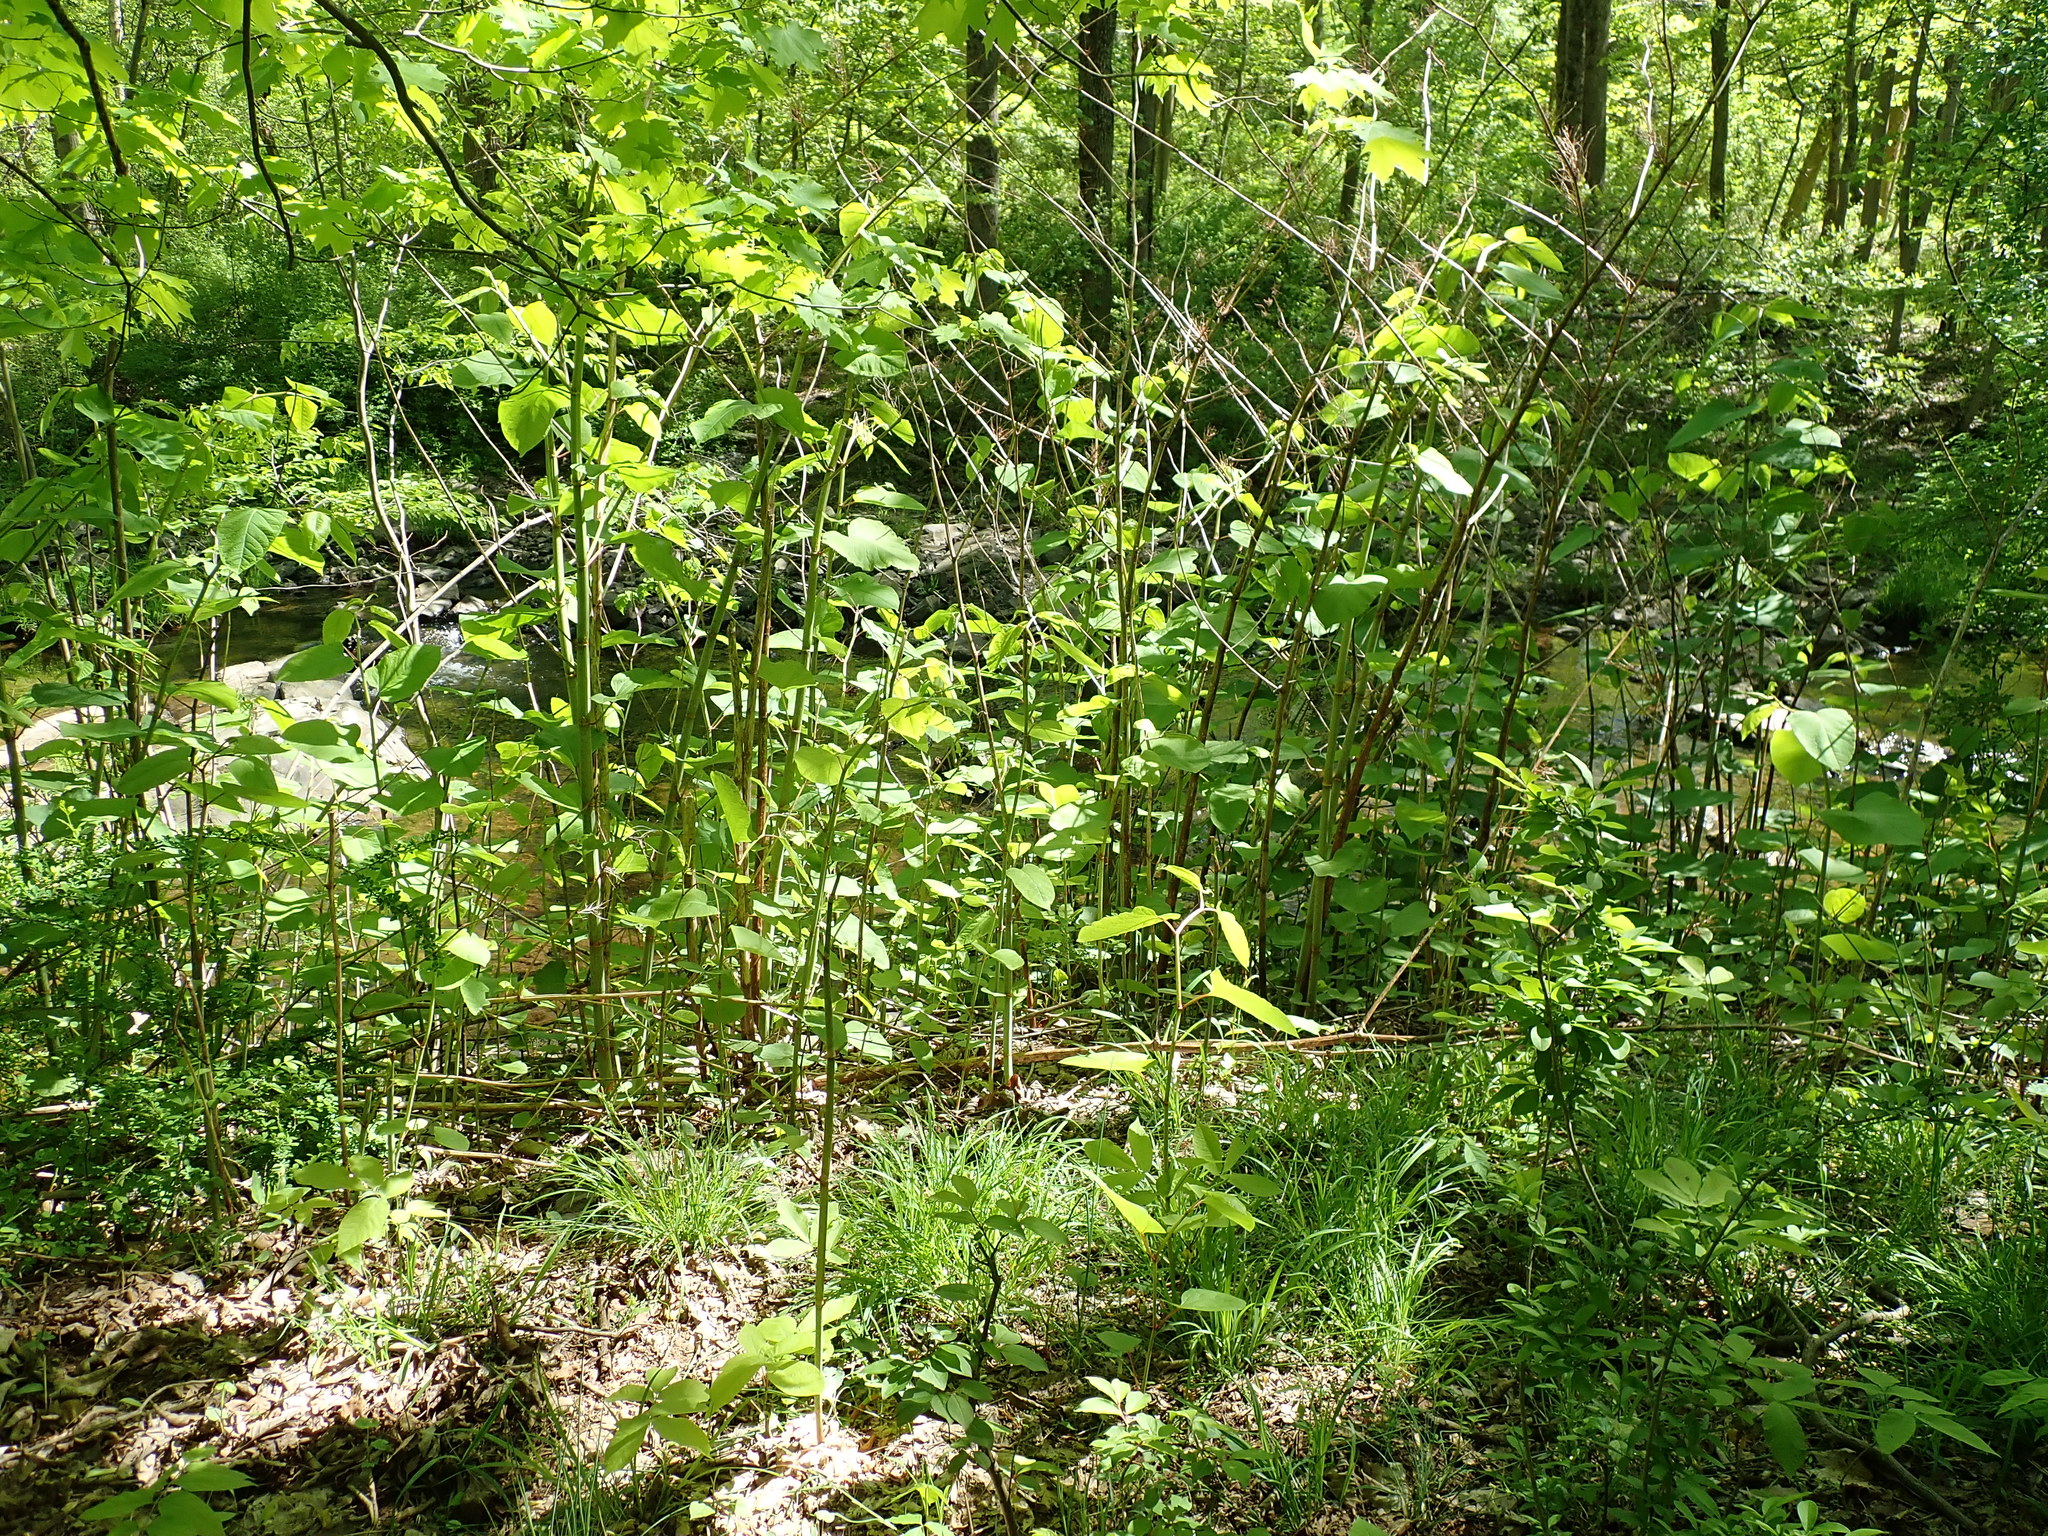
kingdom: Plantae
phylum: Tracheophyta
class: Magnoliopsida
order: Caryophyllales
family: Polygonaceae
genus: Reynoutria
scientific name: Reynoutria japonica
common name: Japanese knotweed
